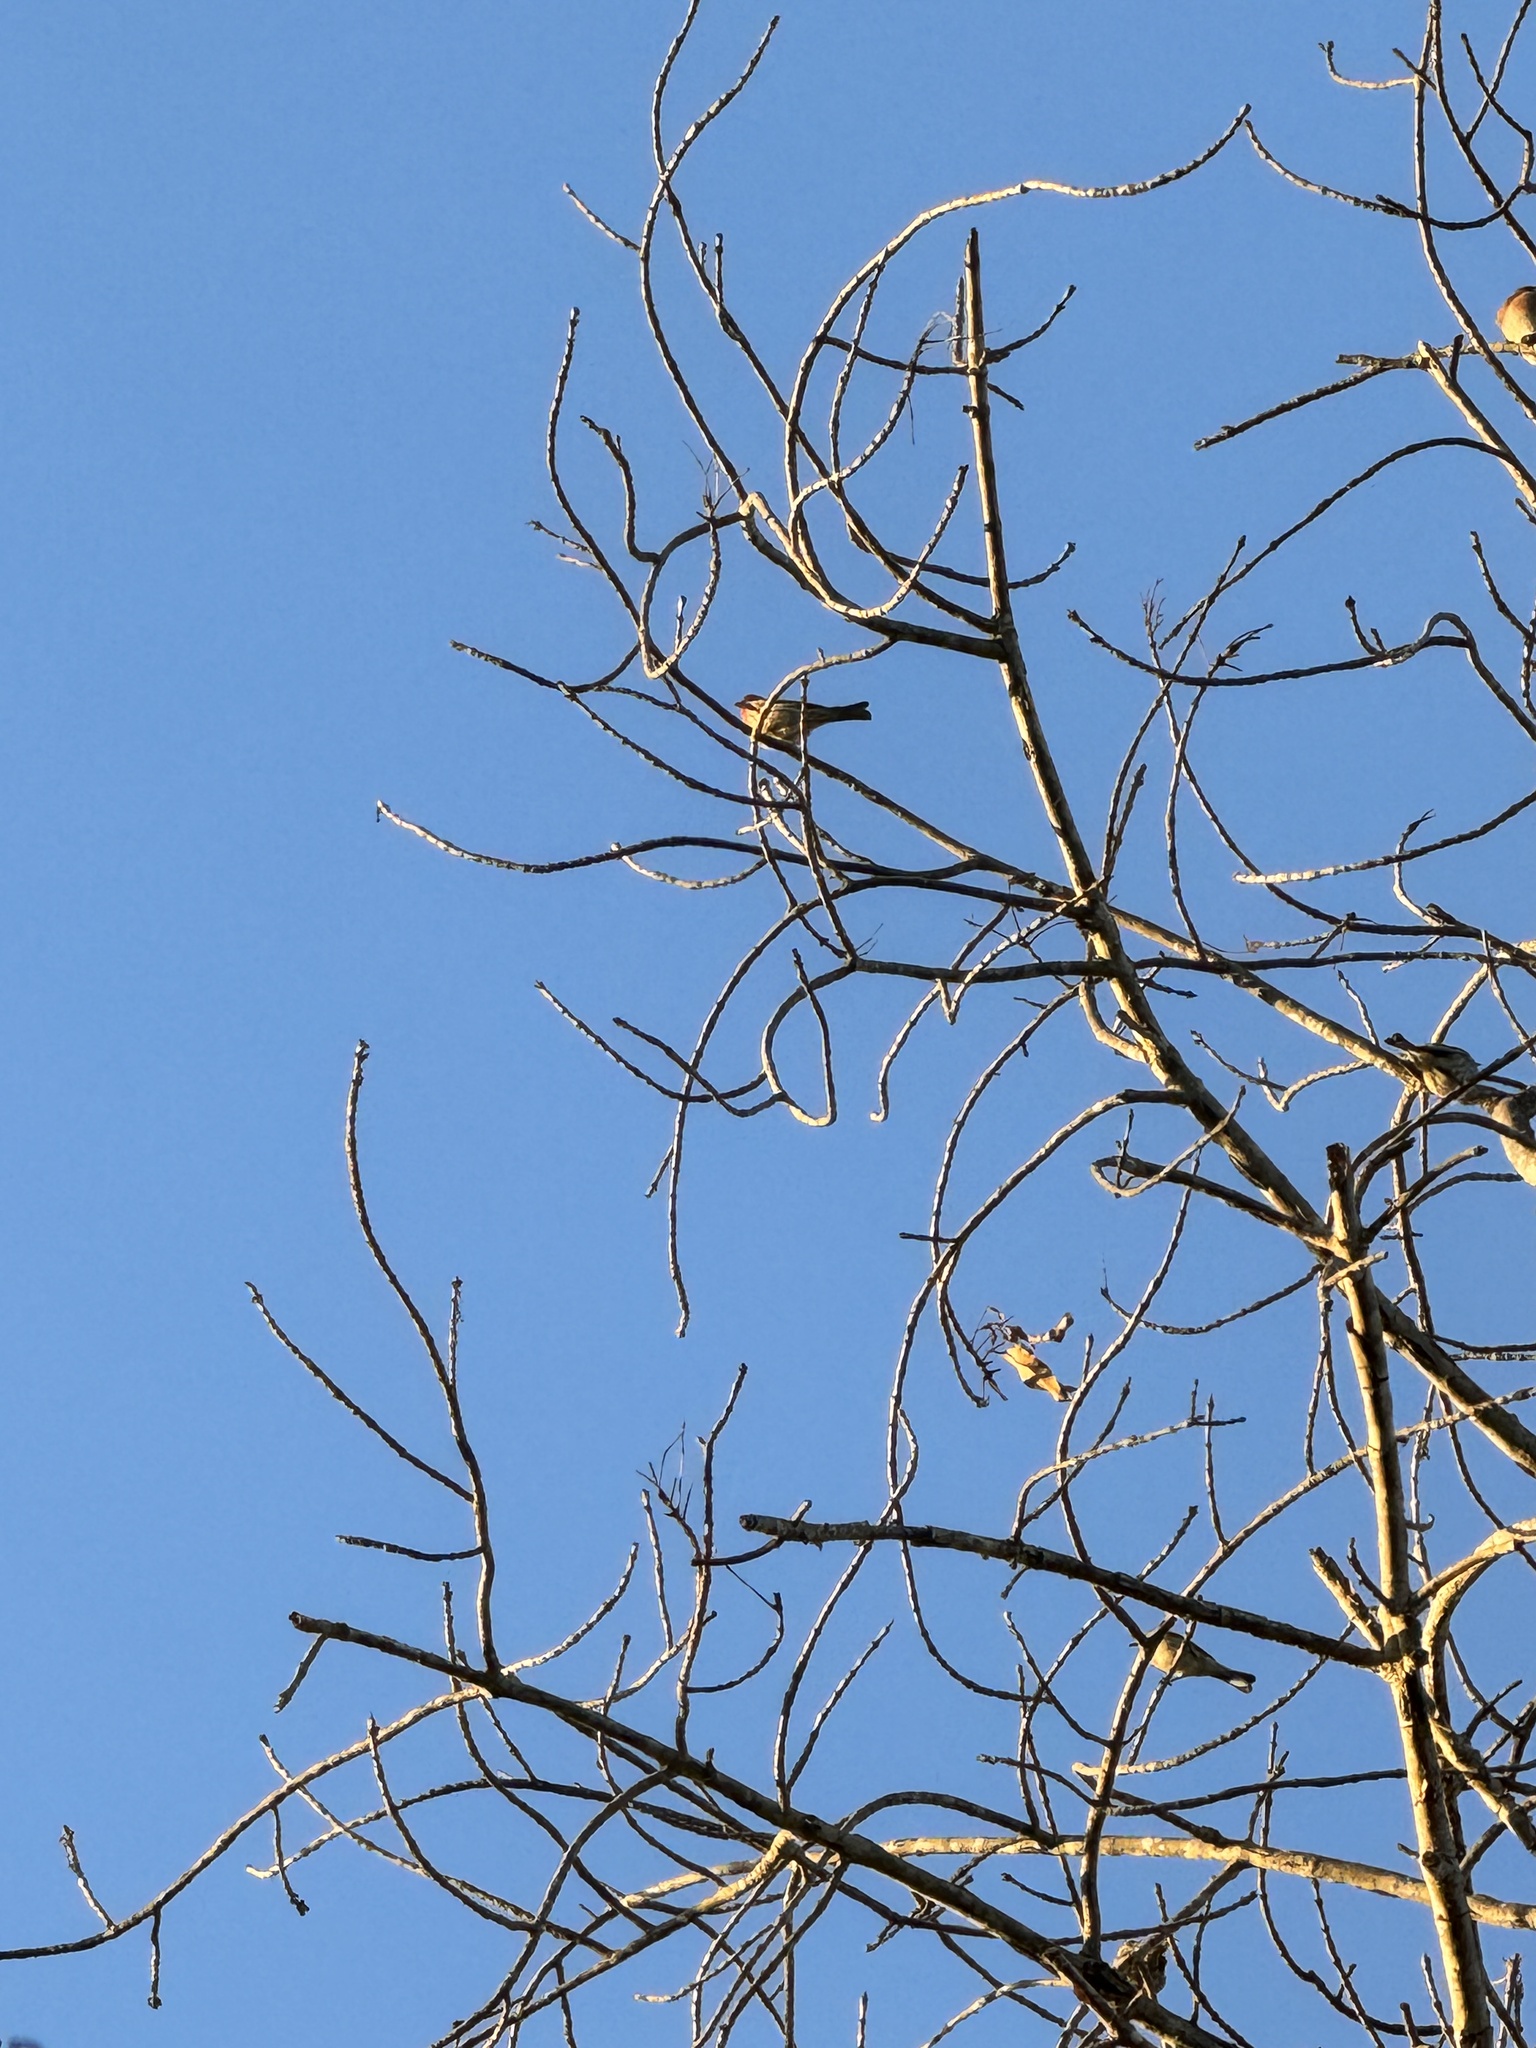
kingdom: Animalia
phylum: Chordata
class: Aves
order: Passeriformes
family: Fringillidae
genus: Haemorhous
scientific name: Haemorhous mexicanus
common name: House finch
